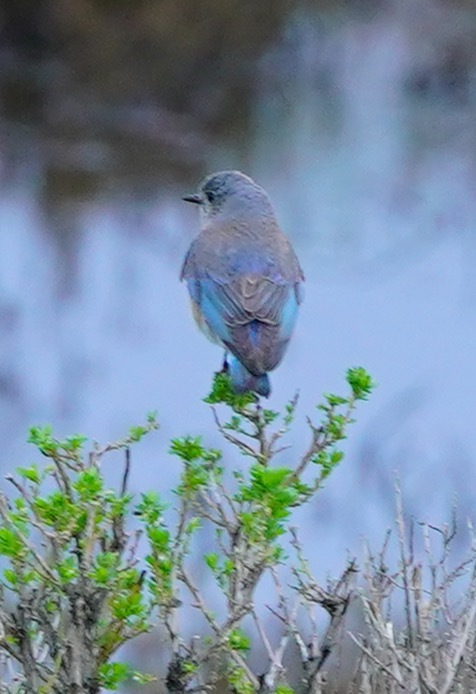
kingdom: Animalia
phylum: Chordata
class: Aves
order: Passeriformes
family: Turdidae
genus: Sialia
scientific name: Sialia mexicana
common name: Western bluebird
